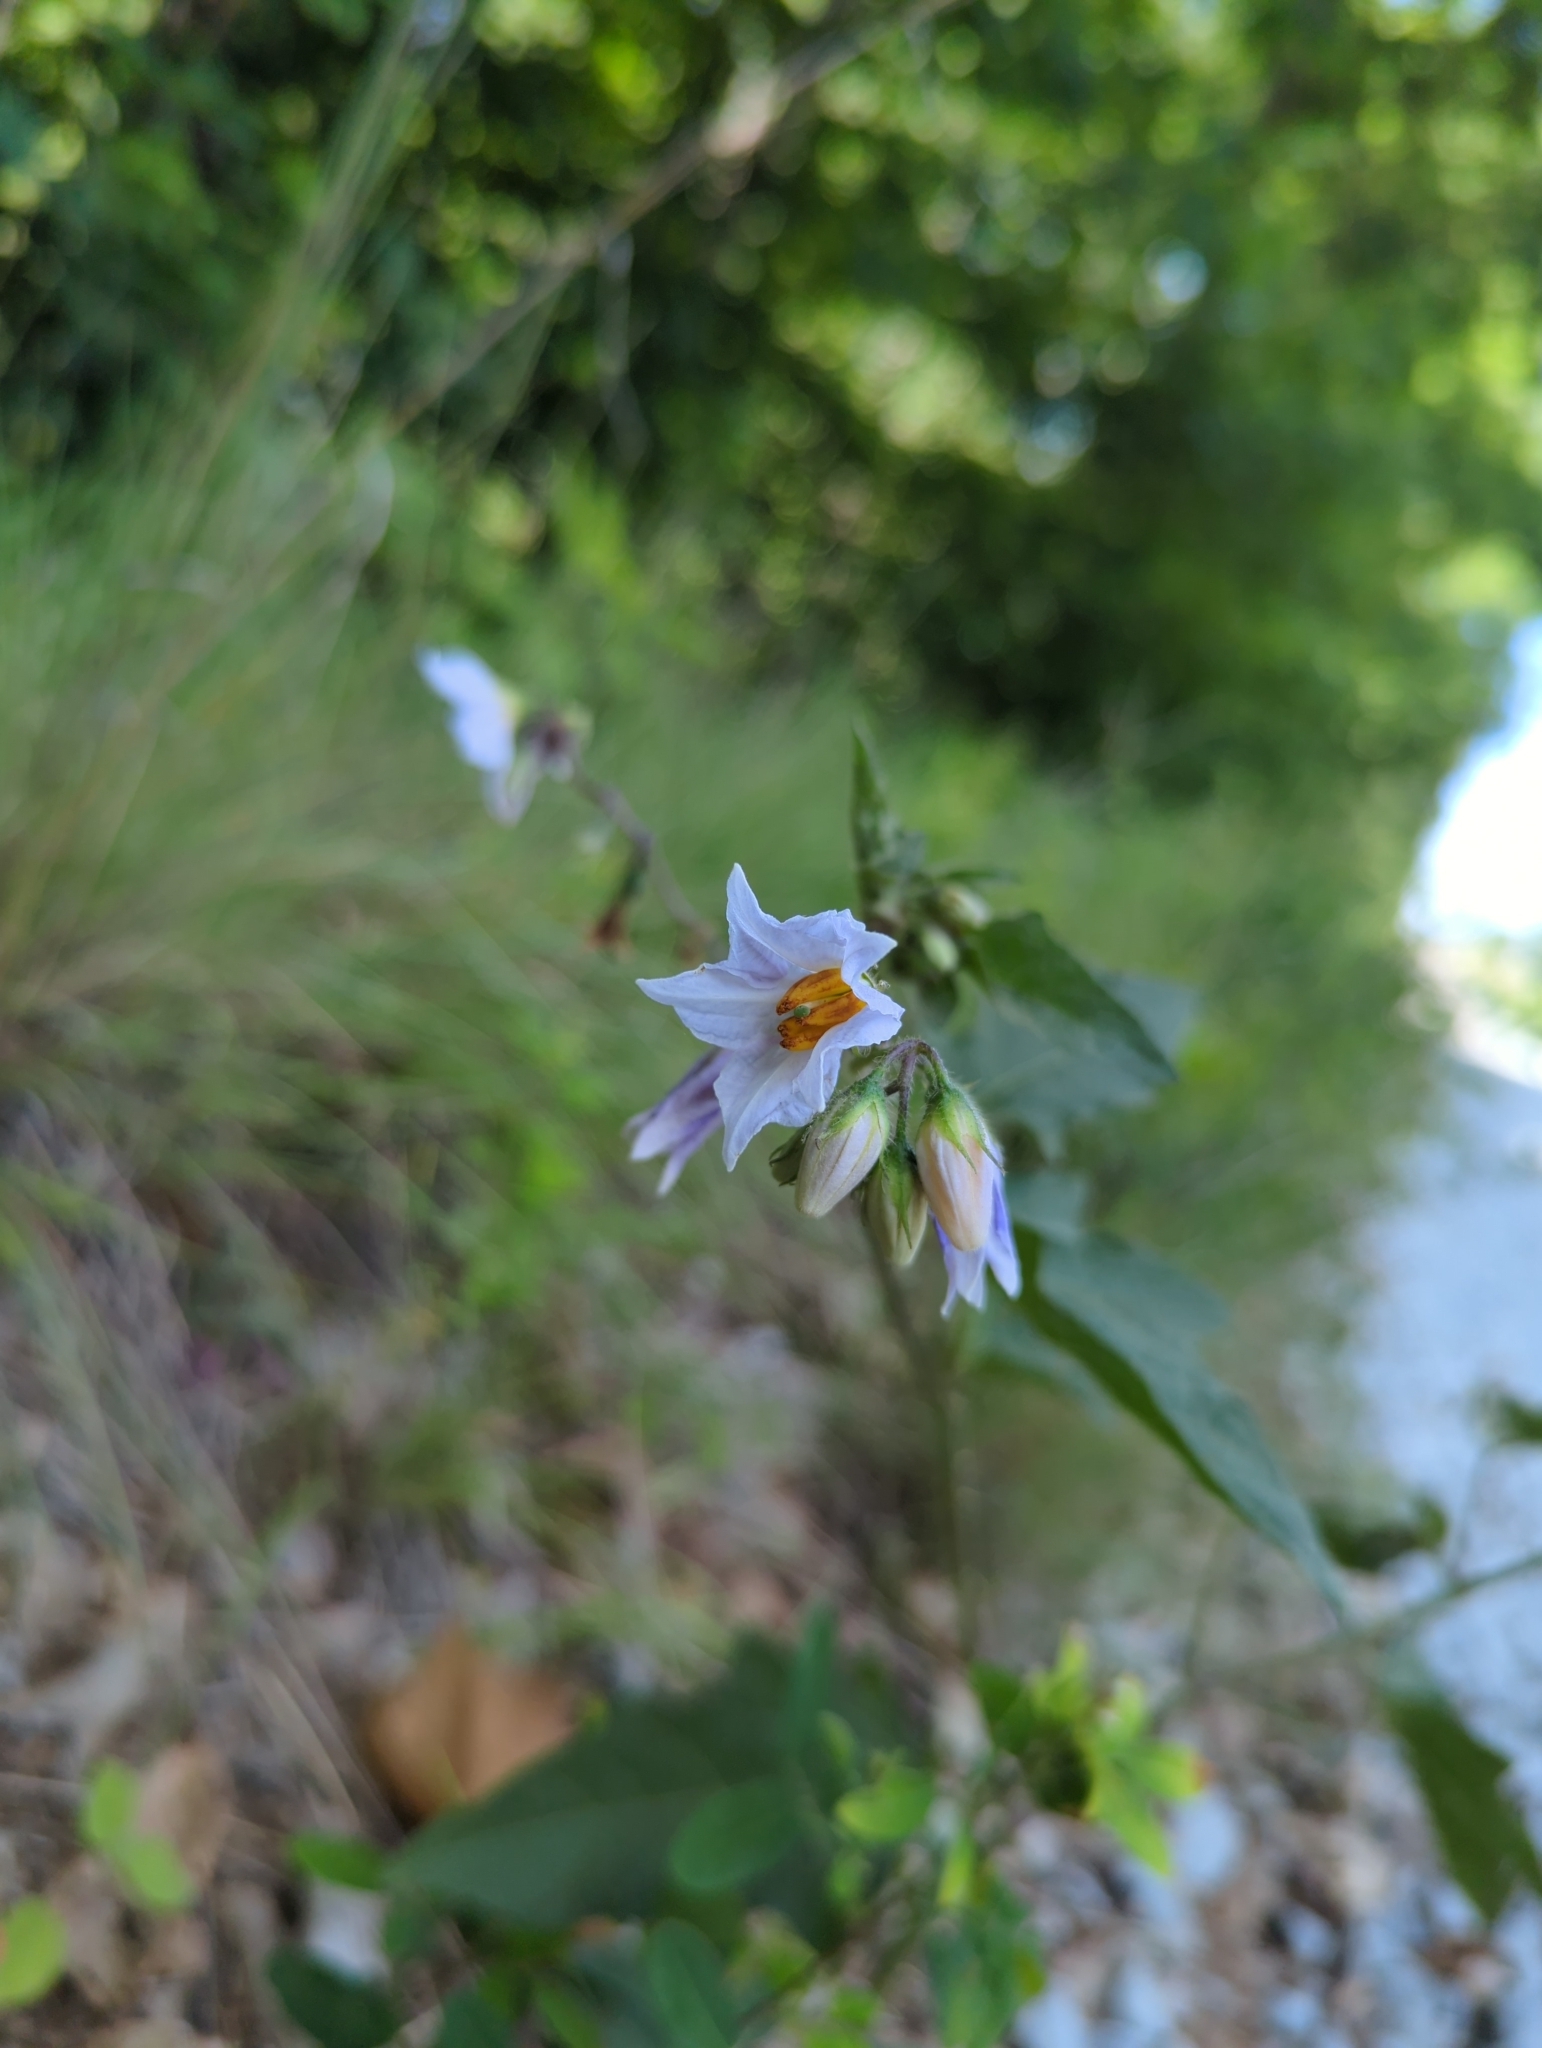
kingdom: Plantae
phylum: Tracheophyta
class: Magnoliopsida
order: Solanales
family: Solanaceae
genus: Solanum
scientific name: Solanum carolinense
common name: Horse-nettle
